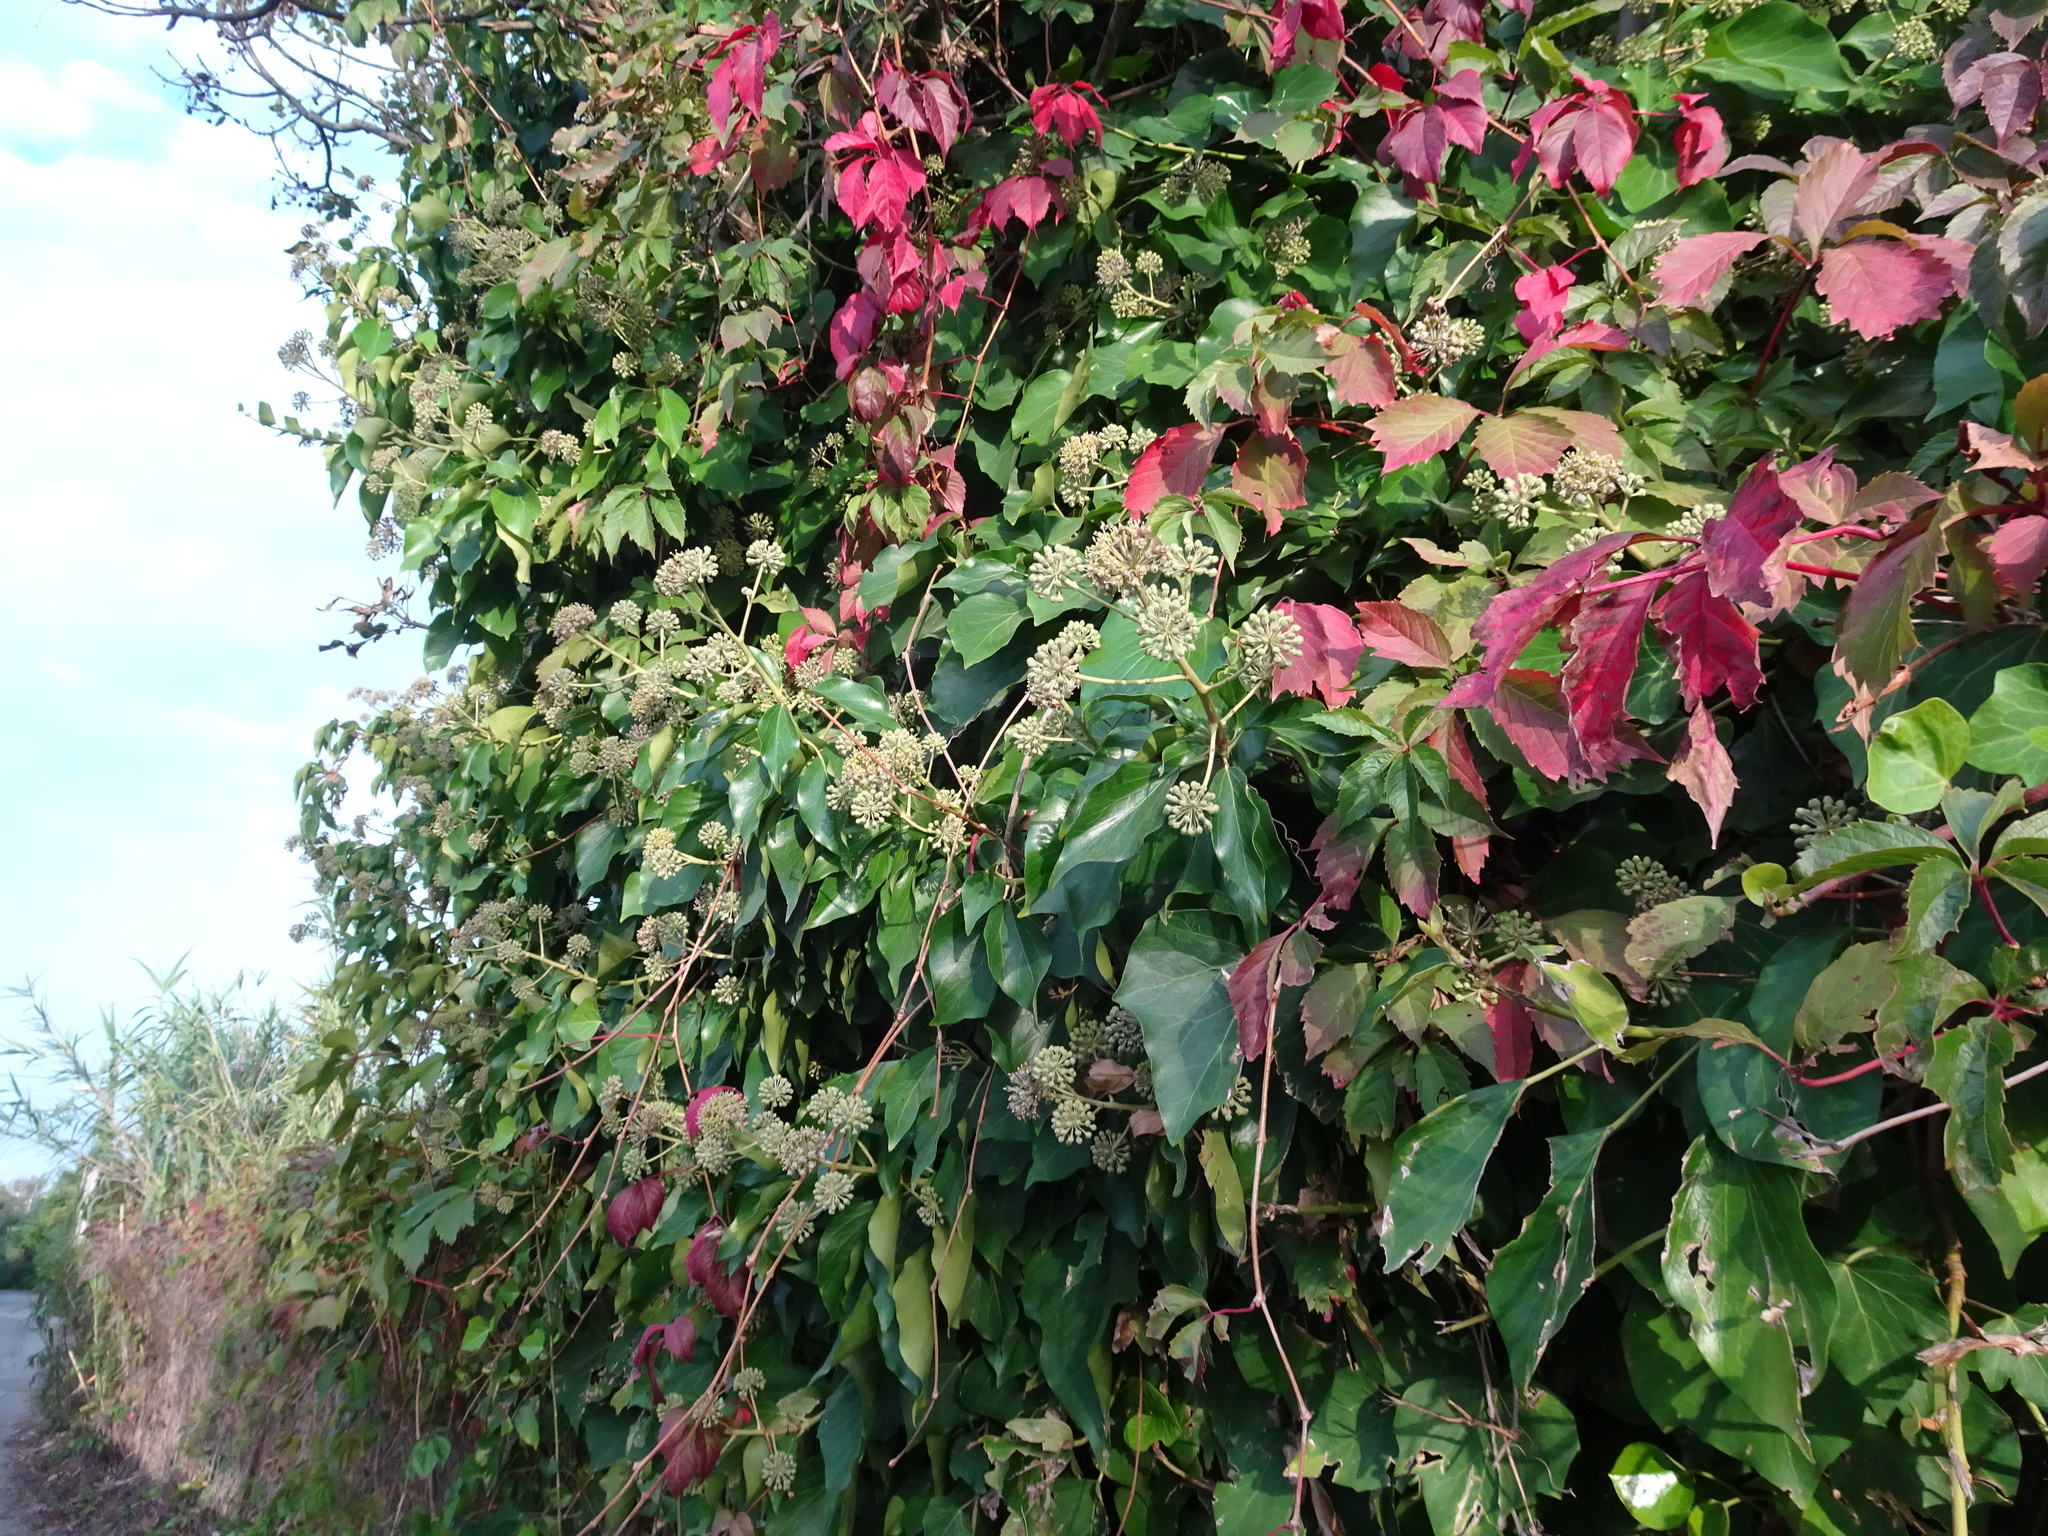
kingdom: Plantae
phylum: Tracheophyta
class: Magnoliopsida
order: Apiales
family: Araliaceae
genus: Hedera
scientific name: Hedera helix
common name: Ivy
